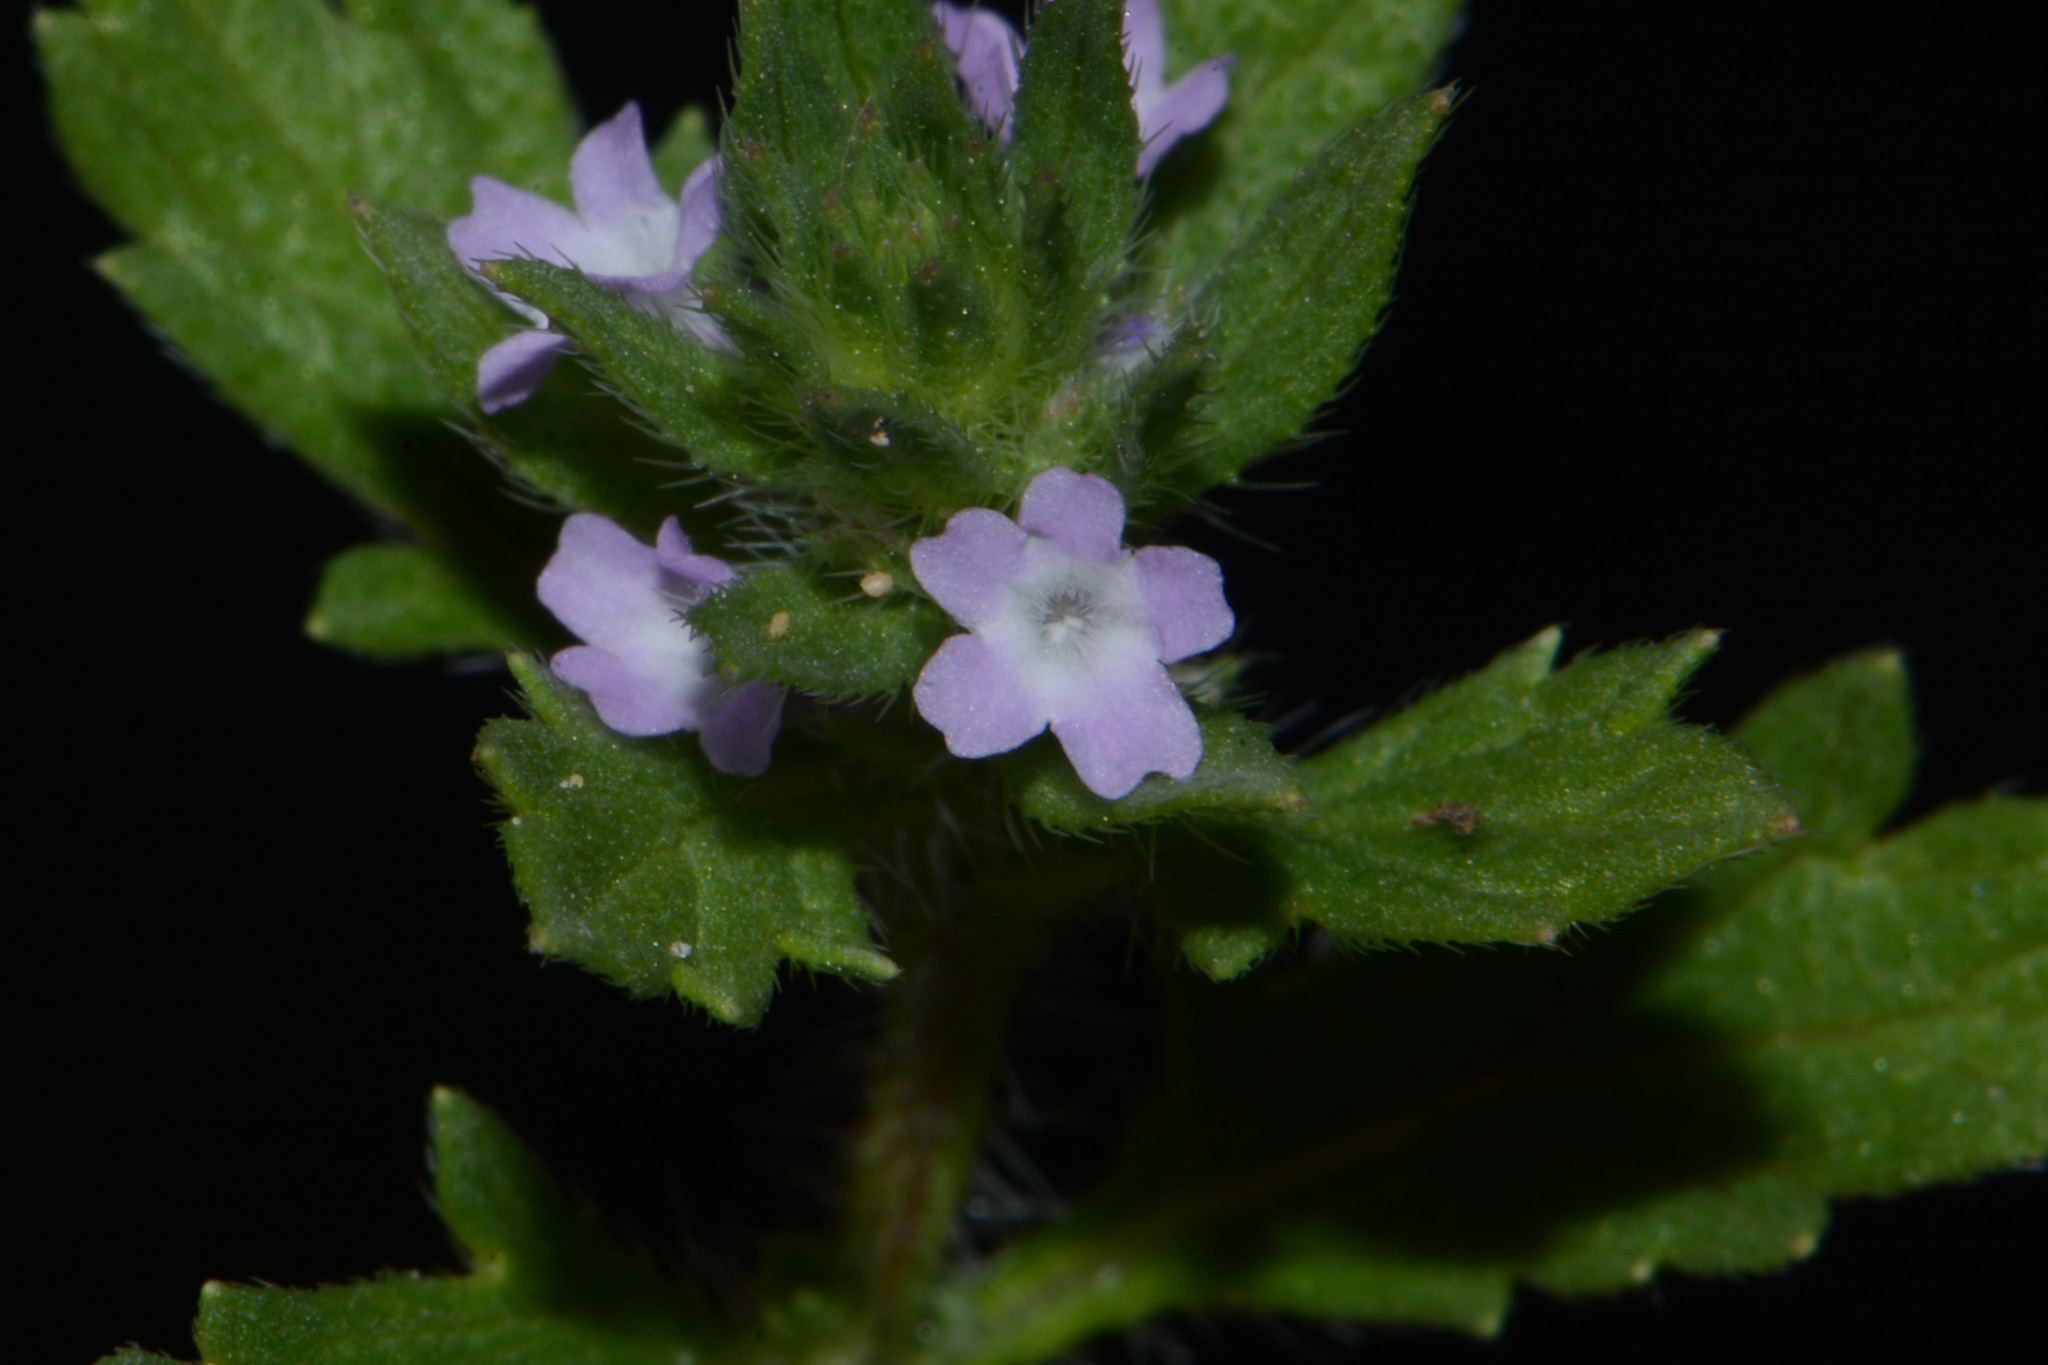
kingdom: Plantae
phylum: Tracheophyta
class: Magnoliopsida
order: Lamiales
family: Verbenaceae
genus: Verbena
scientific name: Verbena bracteata
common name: Bracted vervain
